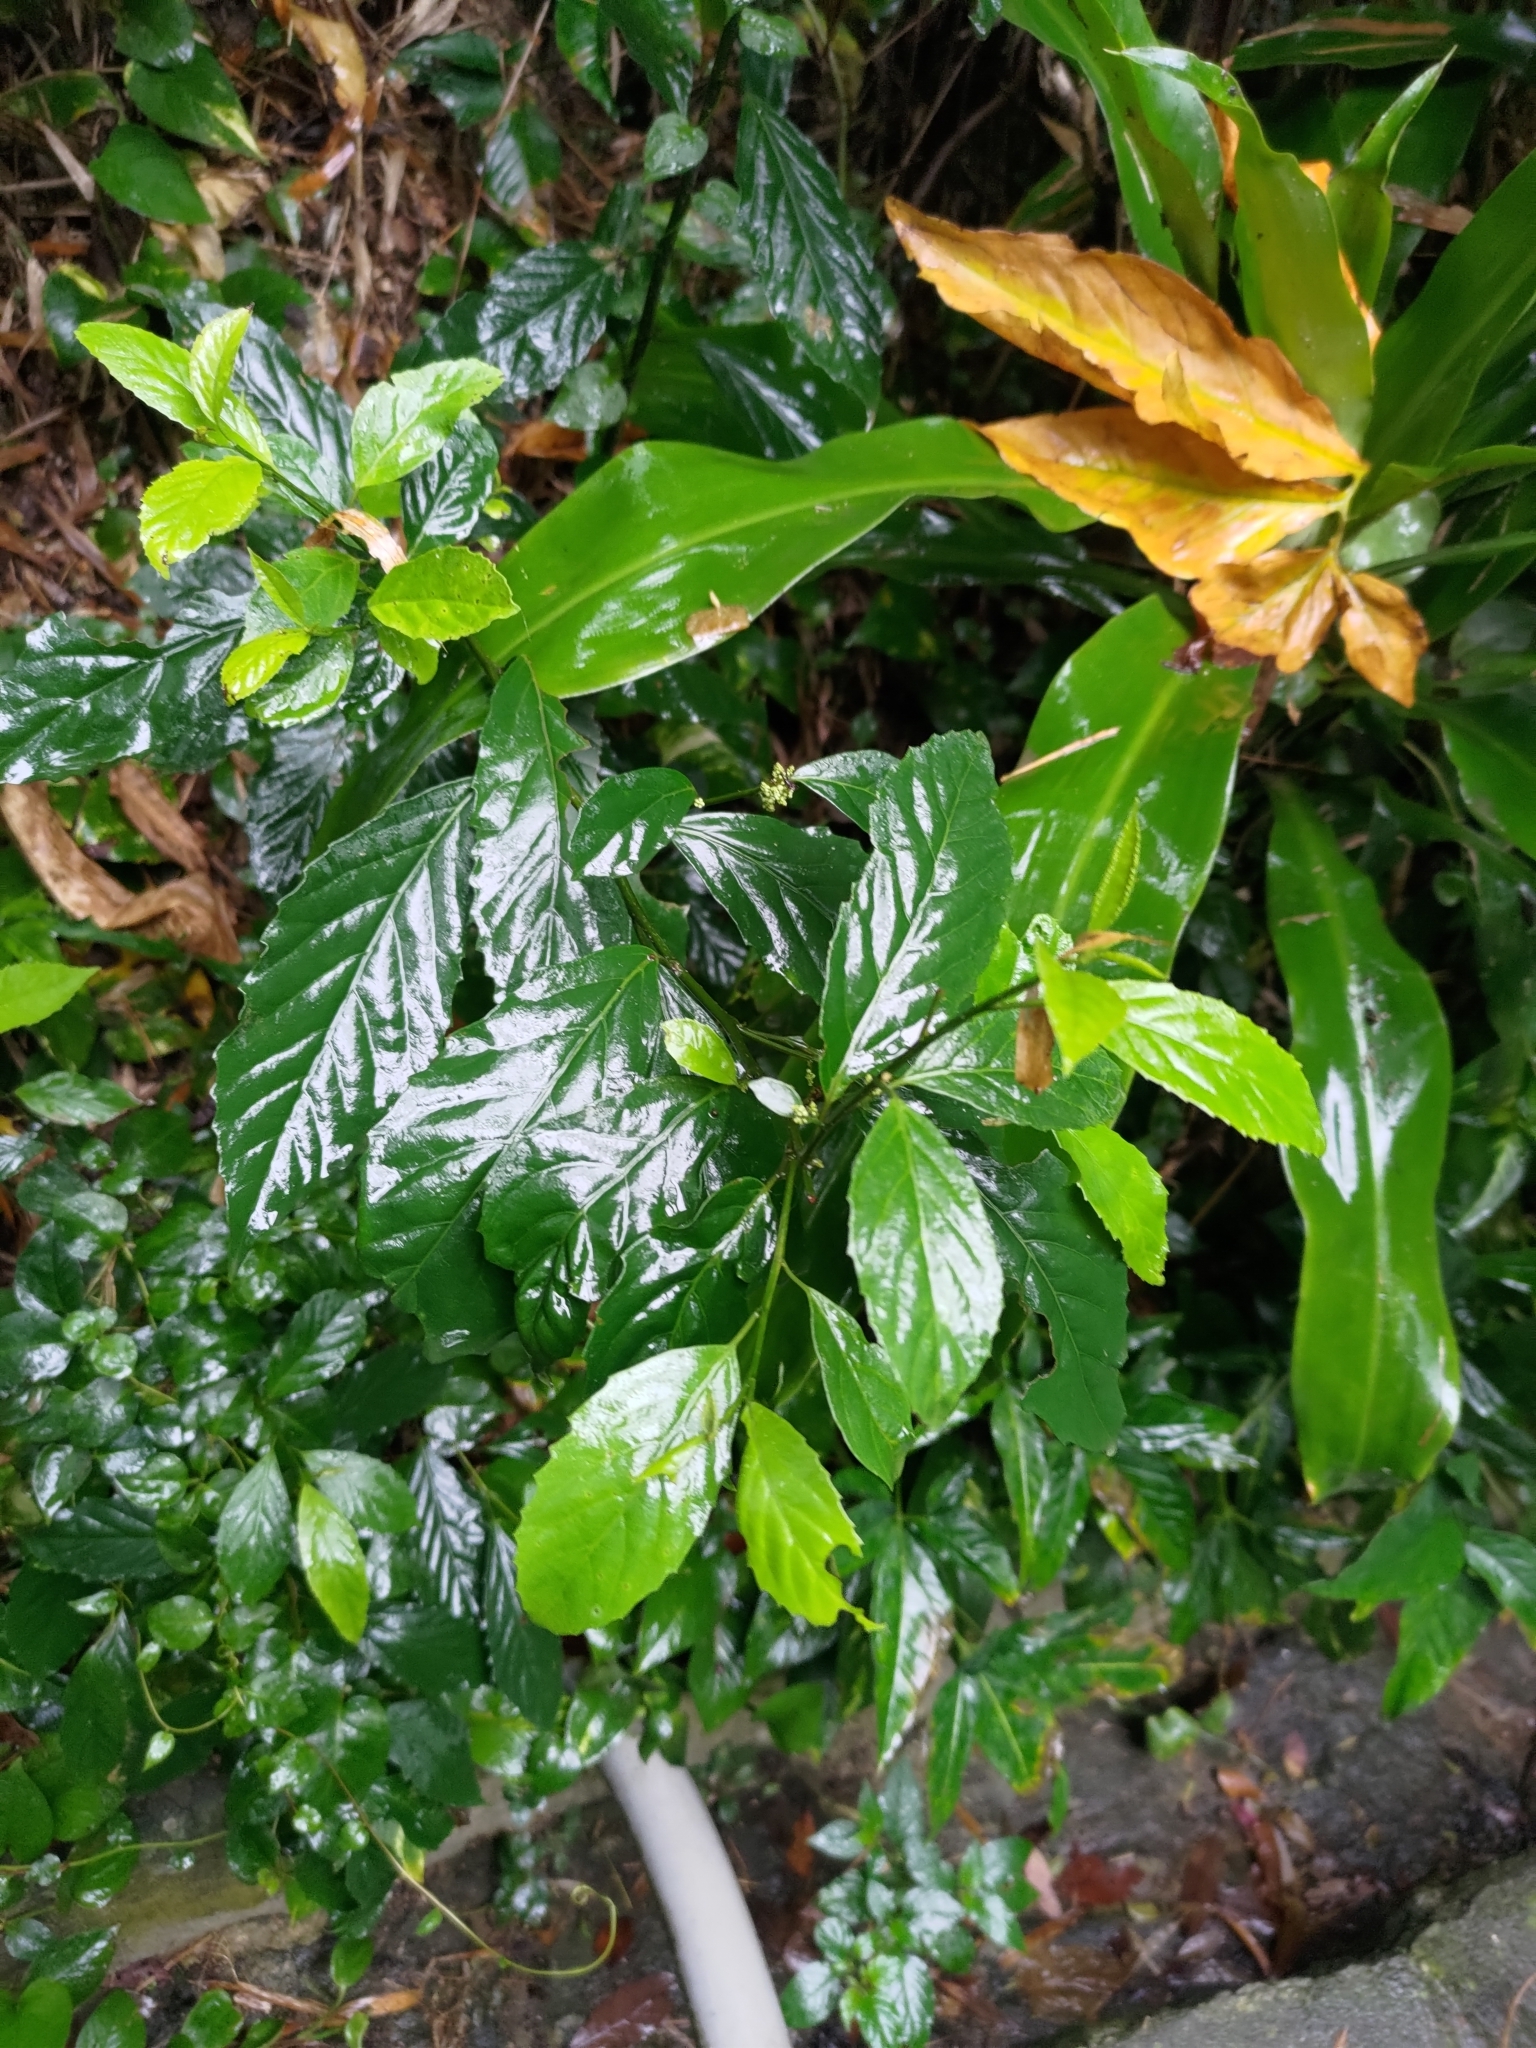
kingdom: Plantae
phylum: Tracheophyta
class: Magnoliopsida
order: Ericales
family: Primulaceae
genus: Maesa
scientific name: Maesa perlaria
